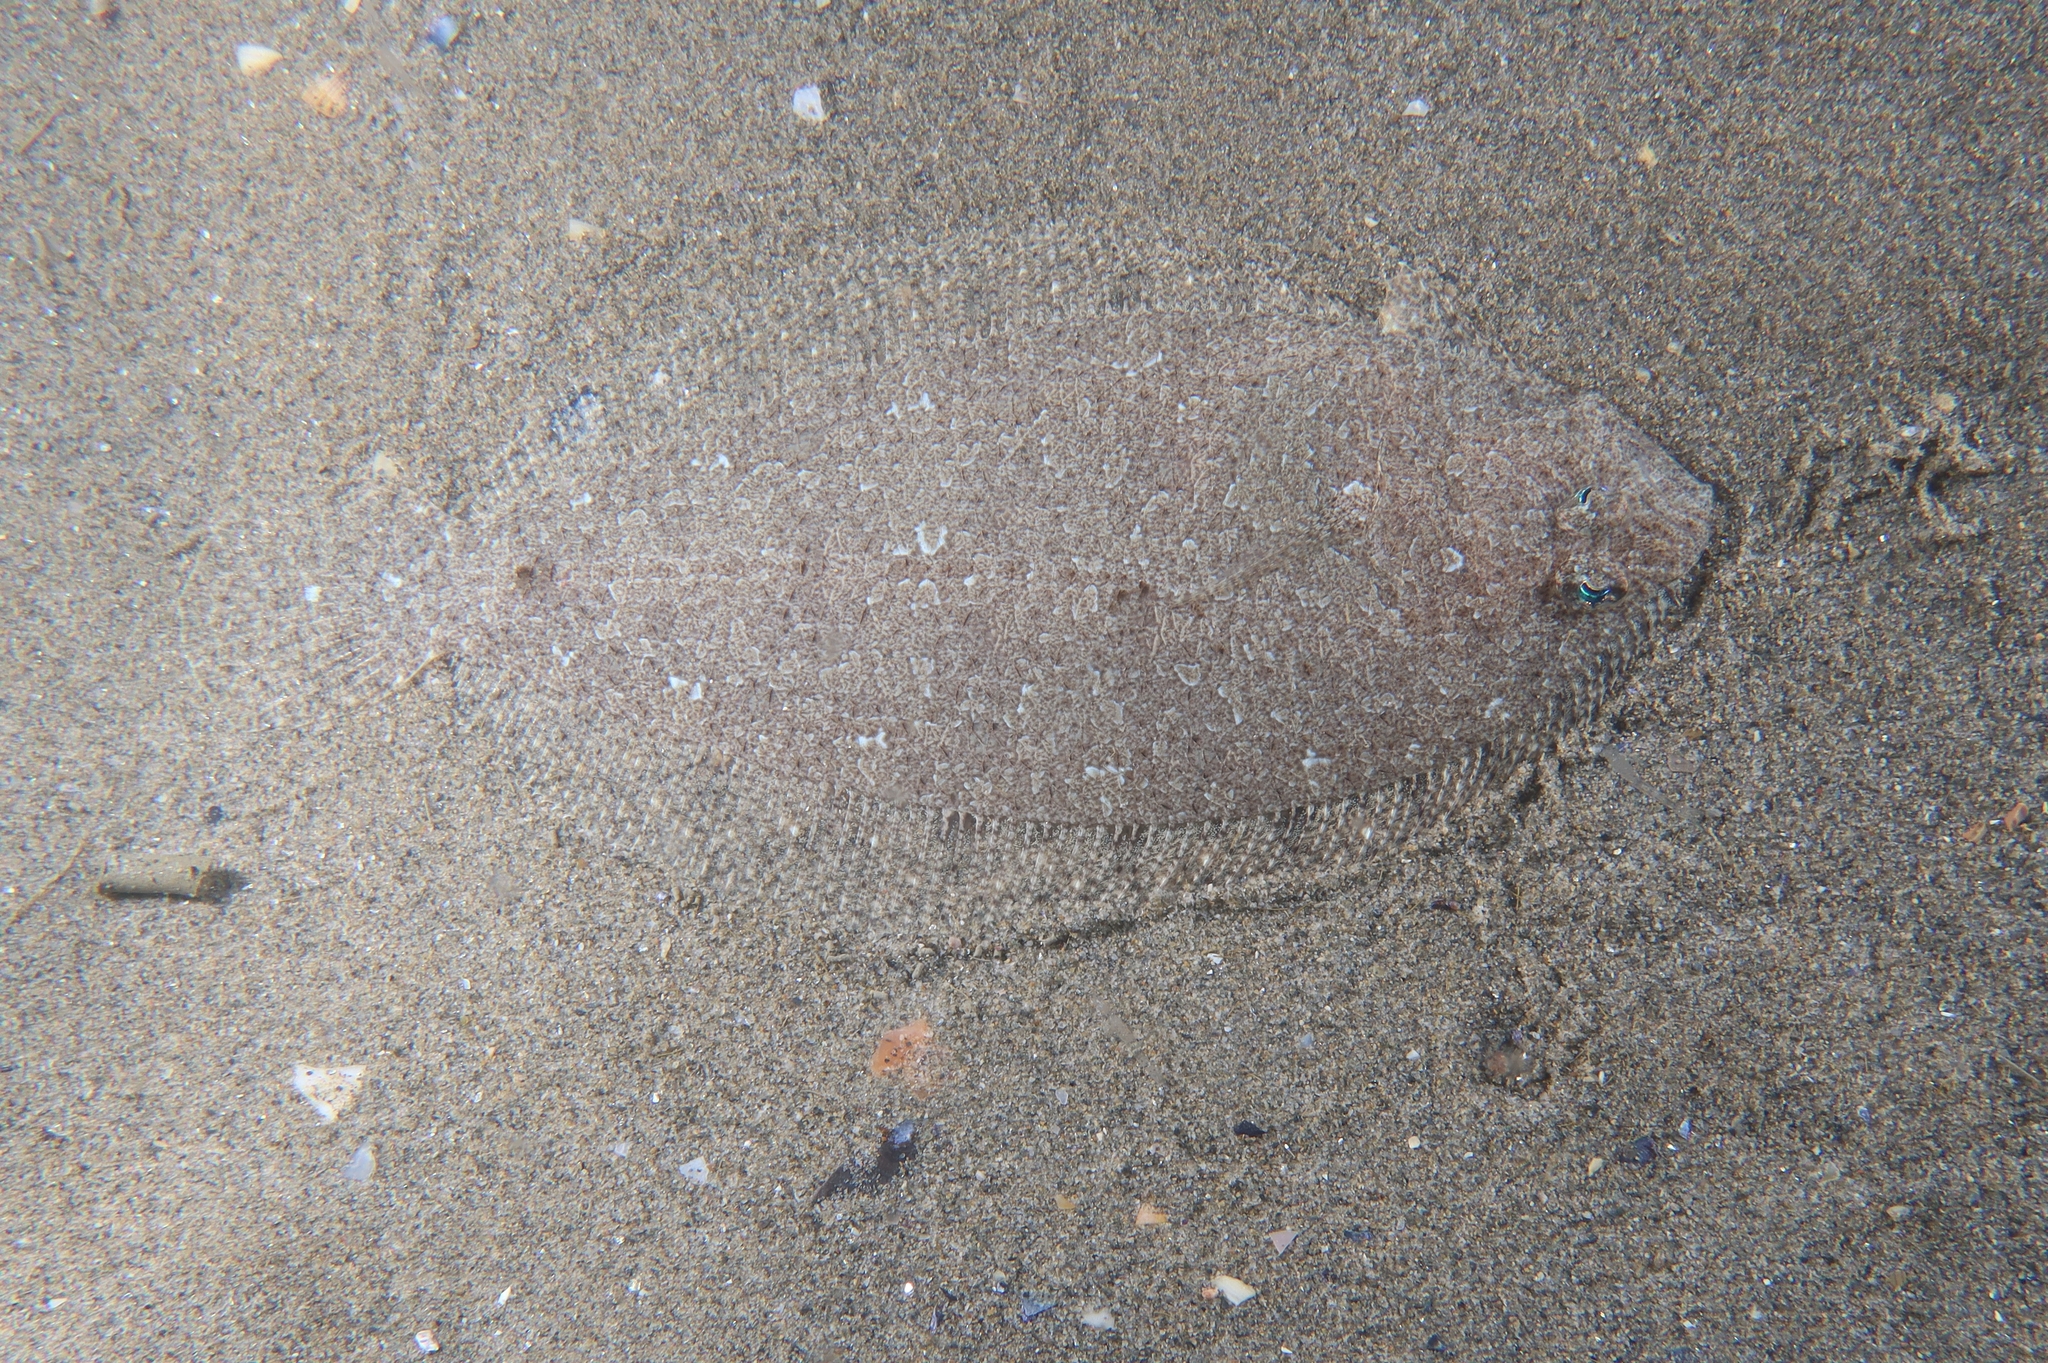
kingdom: Animalia
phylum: Chordata
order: Pleuronectiformes
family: Bothidae
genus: Arnoglossus
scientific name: Arnoglossus laterna
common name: Scaldfish
